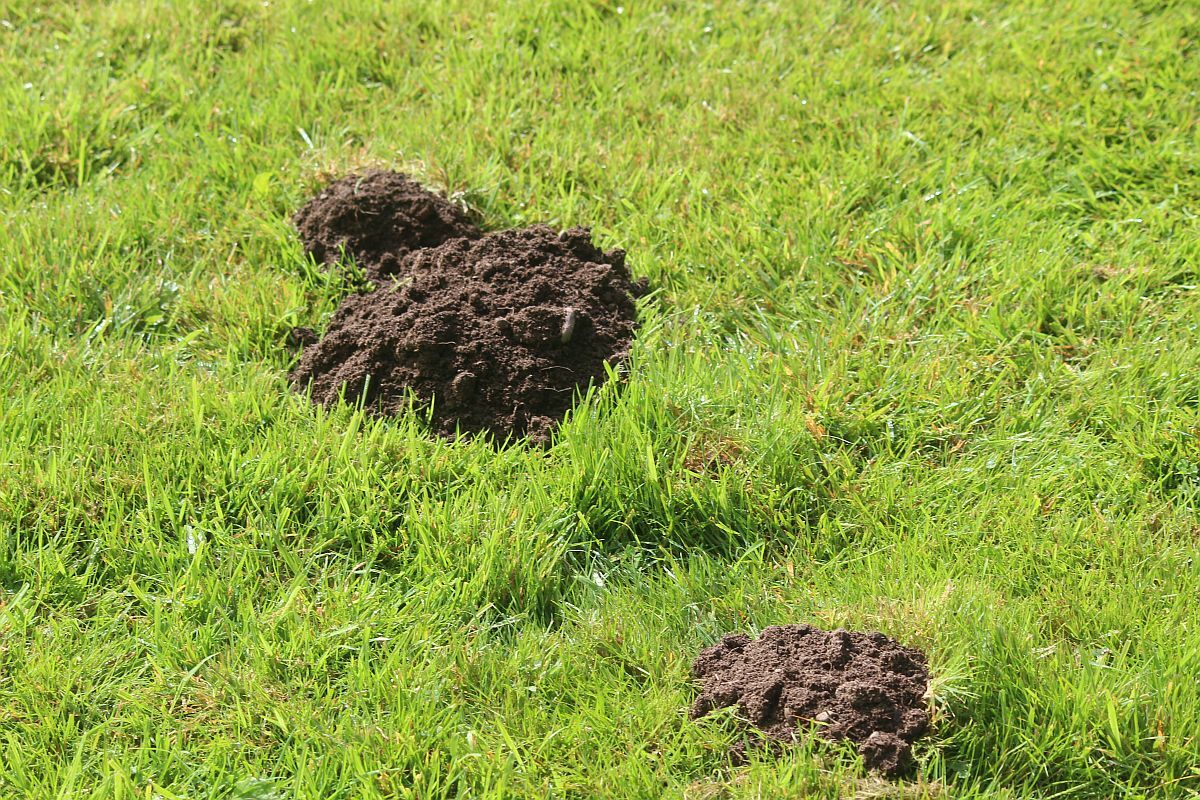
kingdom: Animalia
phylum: Chordata
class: Mammalia
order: Soricomorpha
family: Talpidae
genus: Talpa
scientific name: Talpa europaea
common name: European mole
